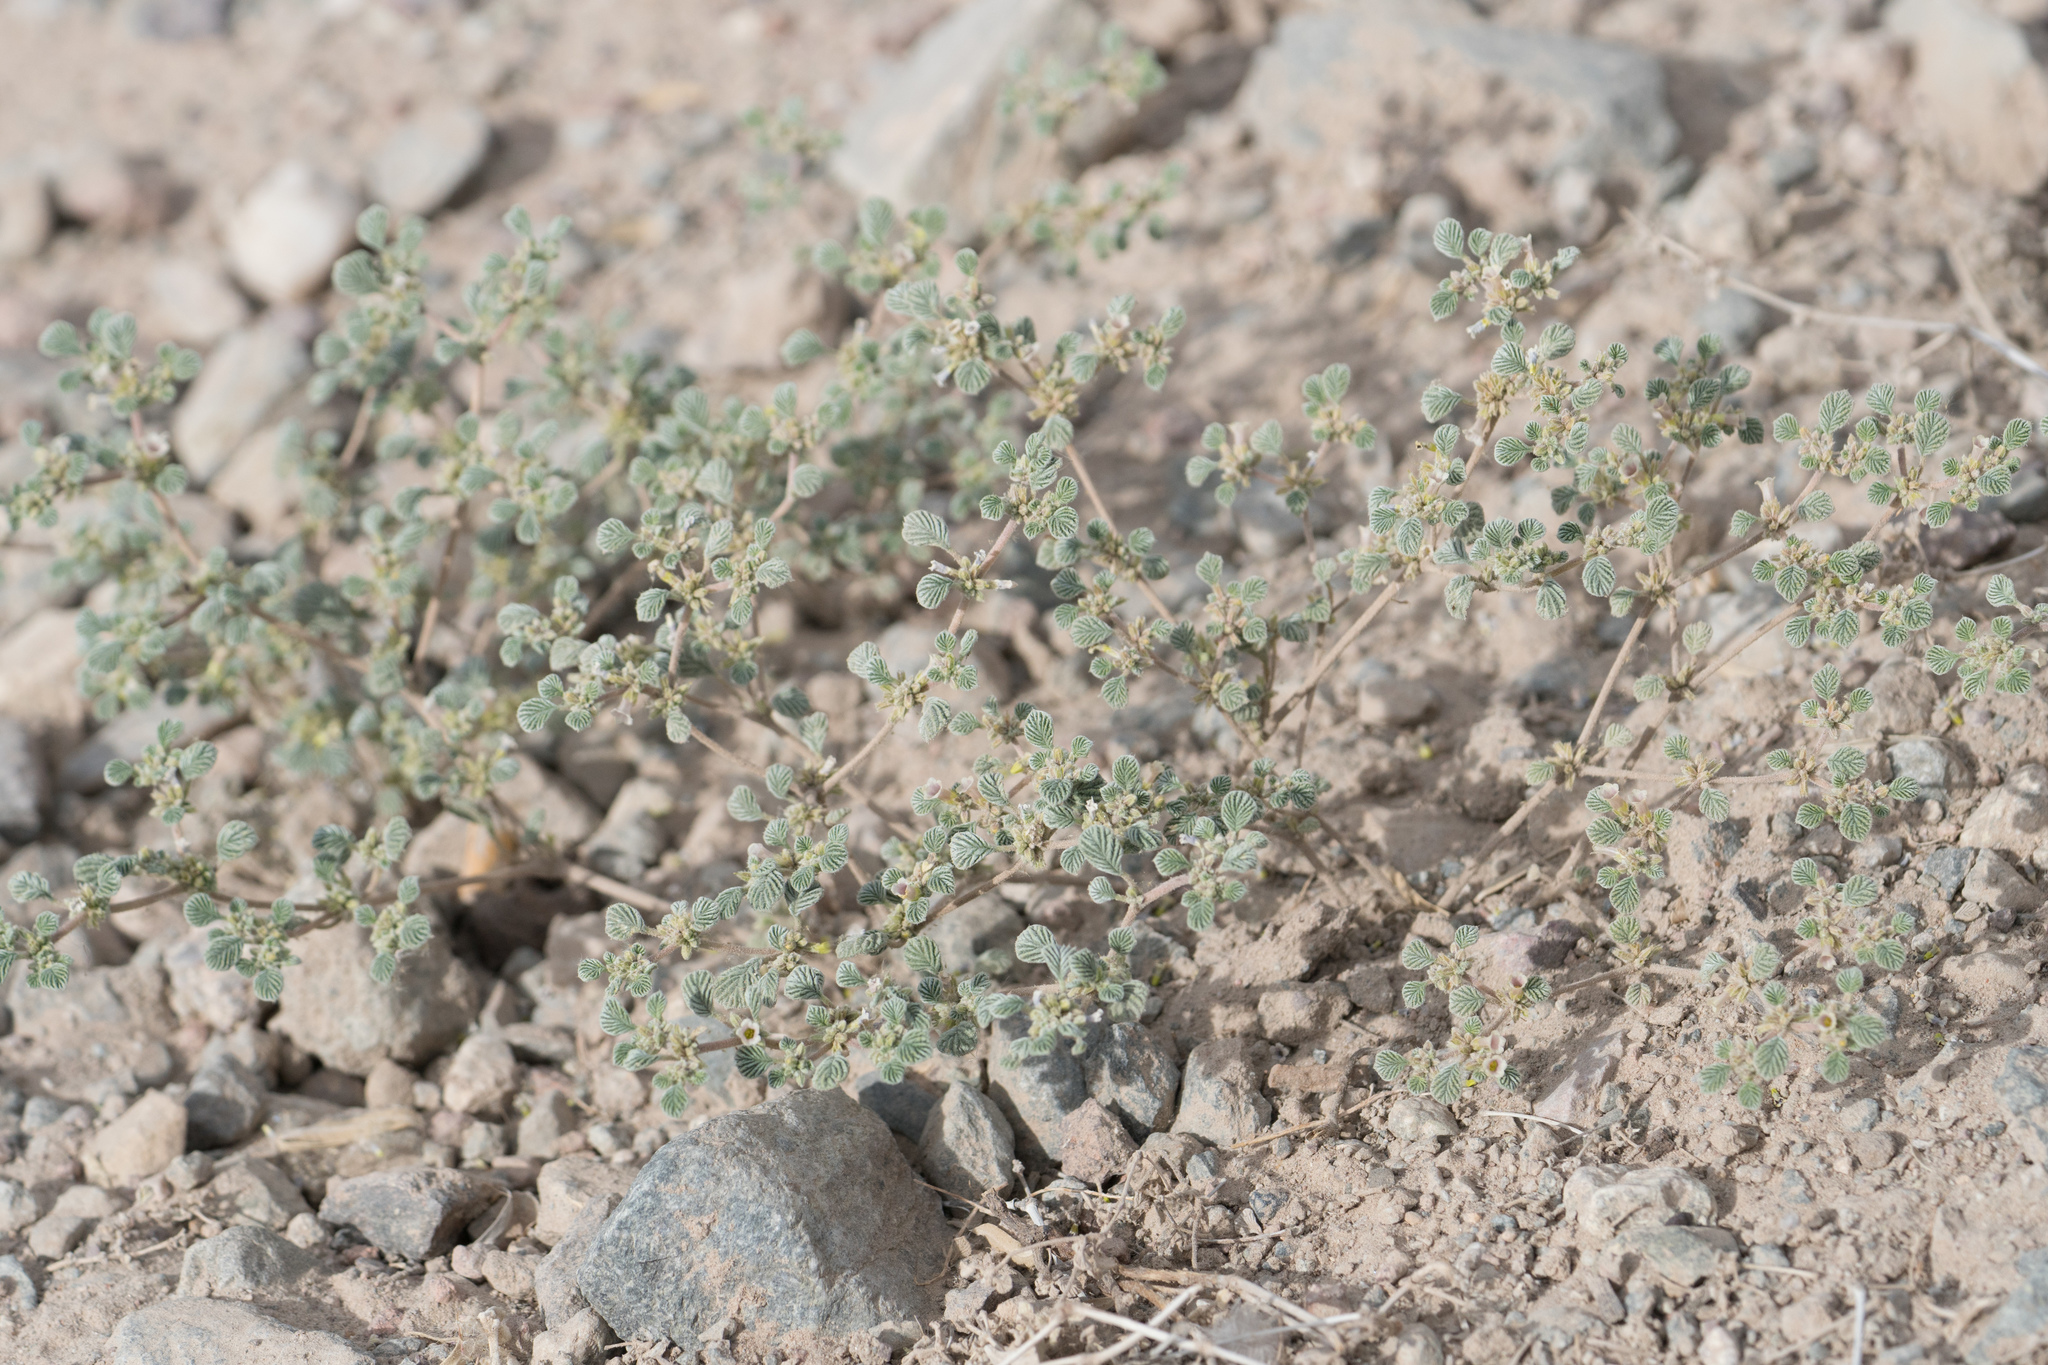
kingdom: Plantae
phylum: Tracheophyta
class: Magnoliopsida
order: Boraginales
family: Ehretiaceae
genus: Tiquilia
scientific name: Tiquilia plicata
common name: Fan-leaf tiquilia
